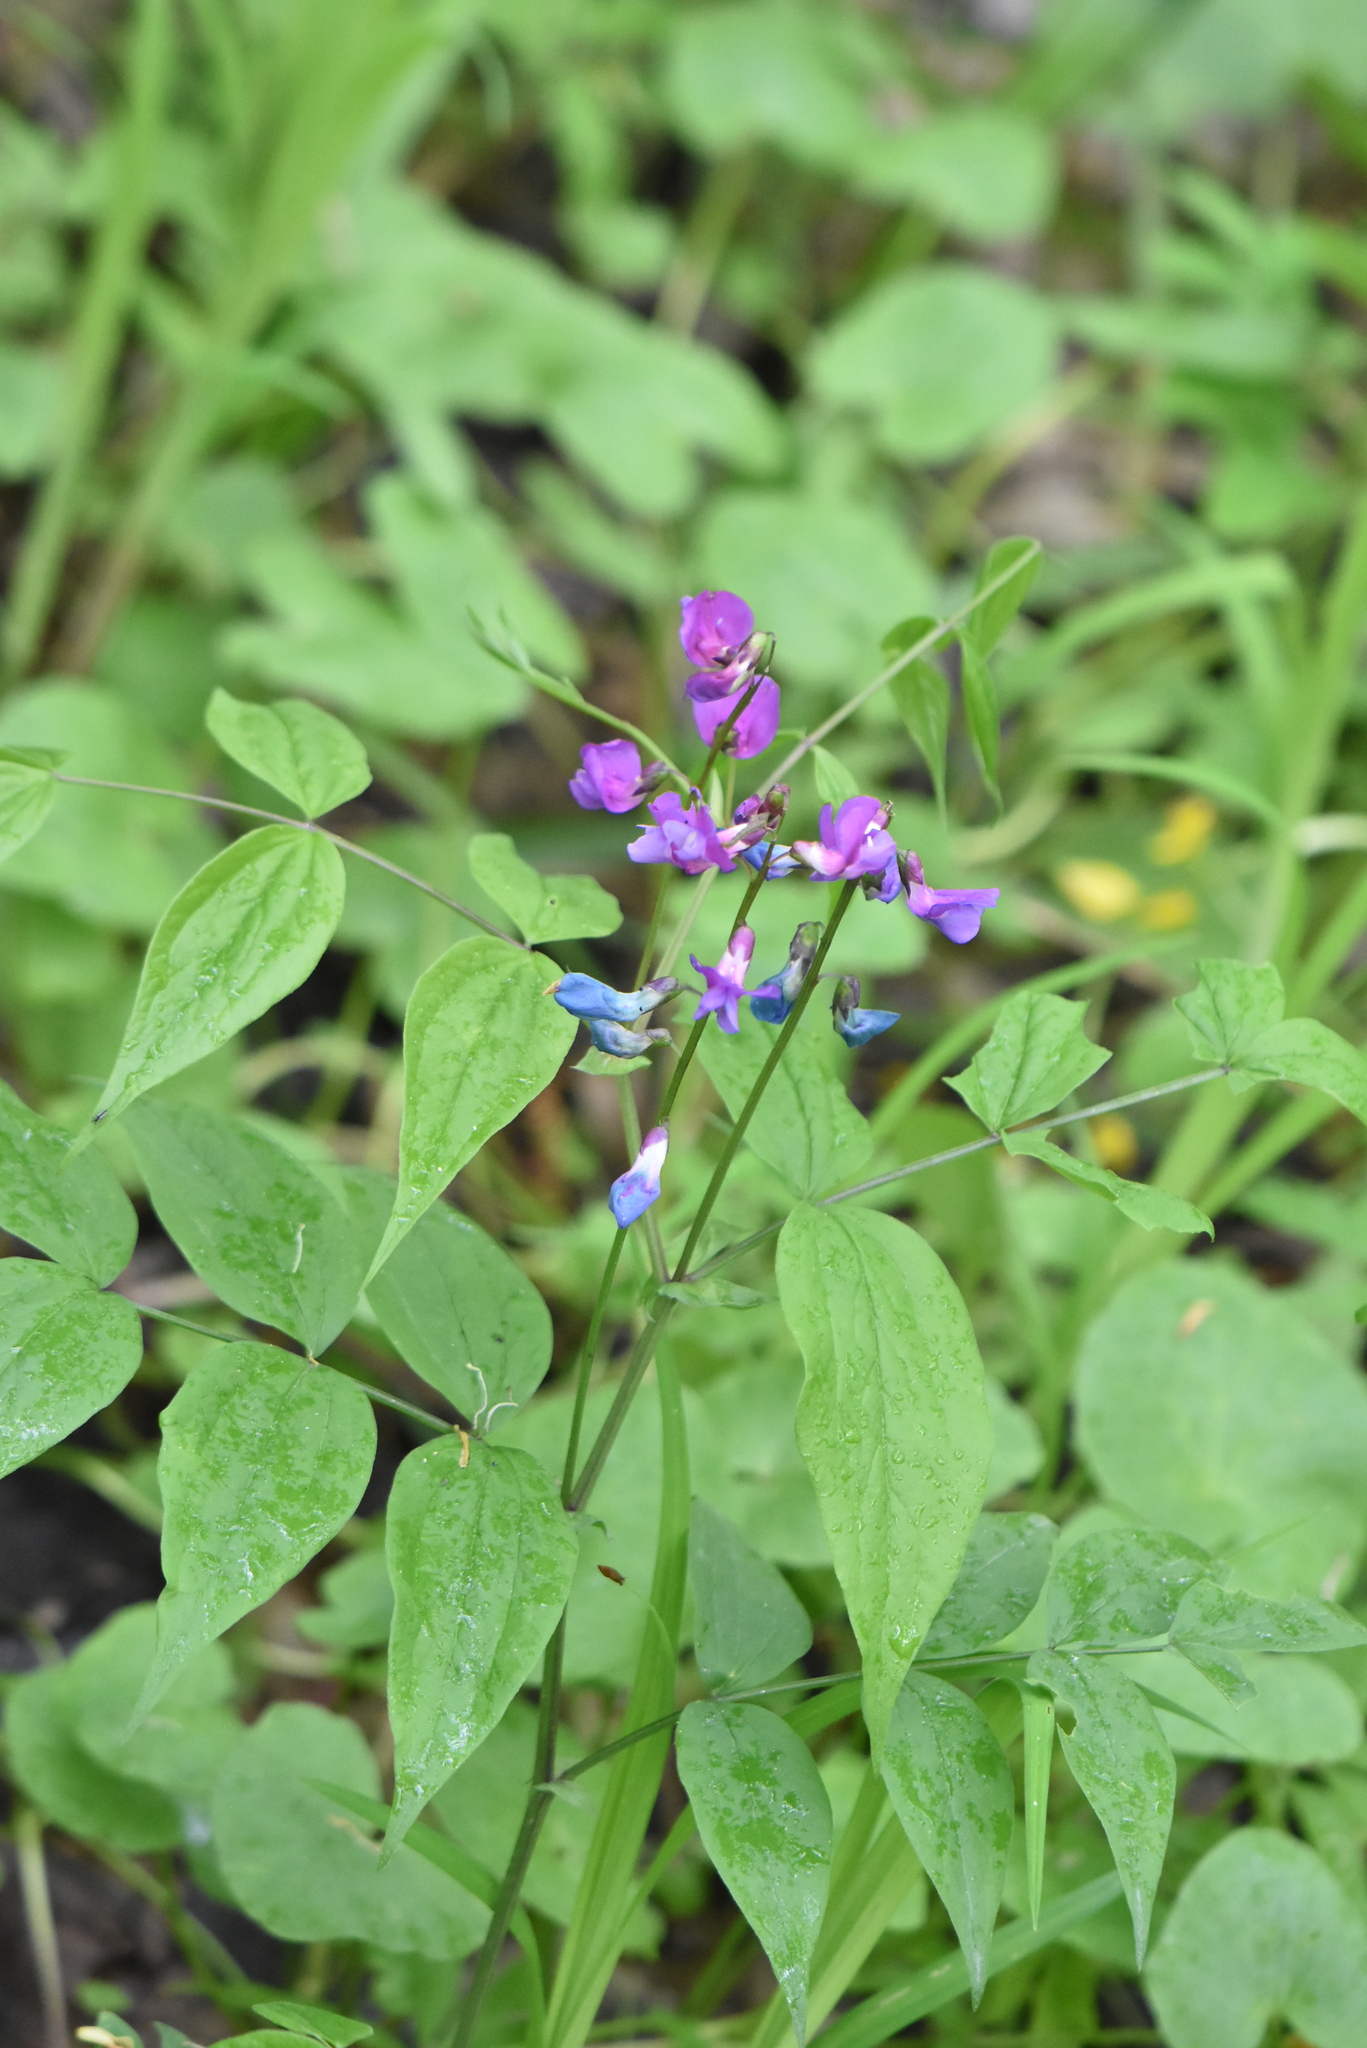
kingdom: Plantae
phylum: Tracheophyta
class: Magnoliopsida
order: Fabales
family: Fabaceae
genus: Lathyrus
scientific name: Lathyrus vernus
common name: Spring pea
